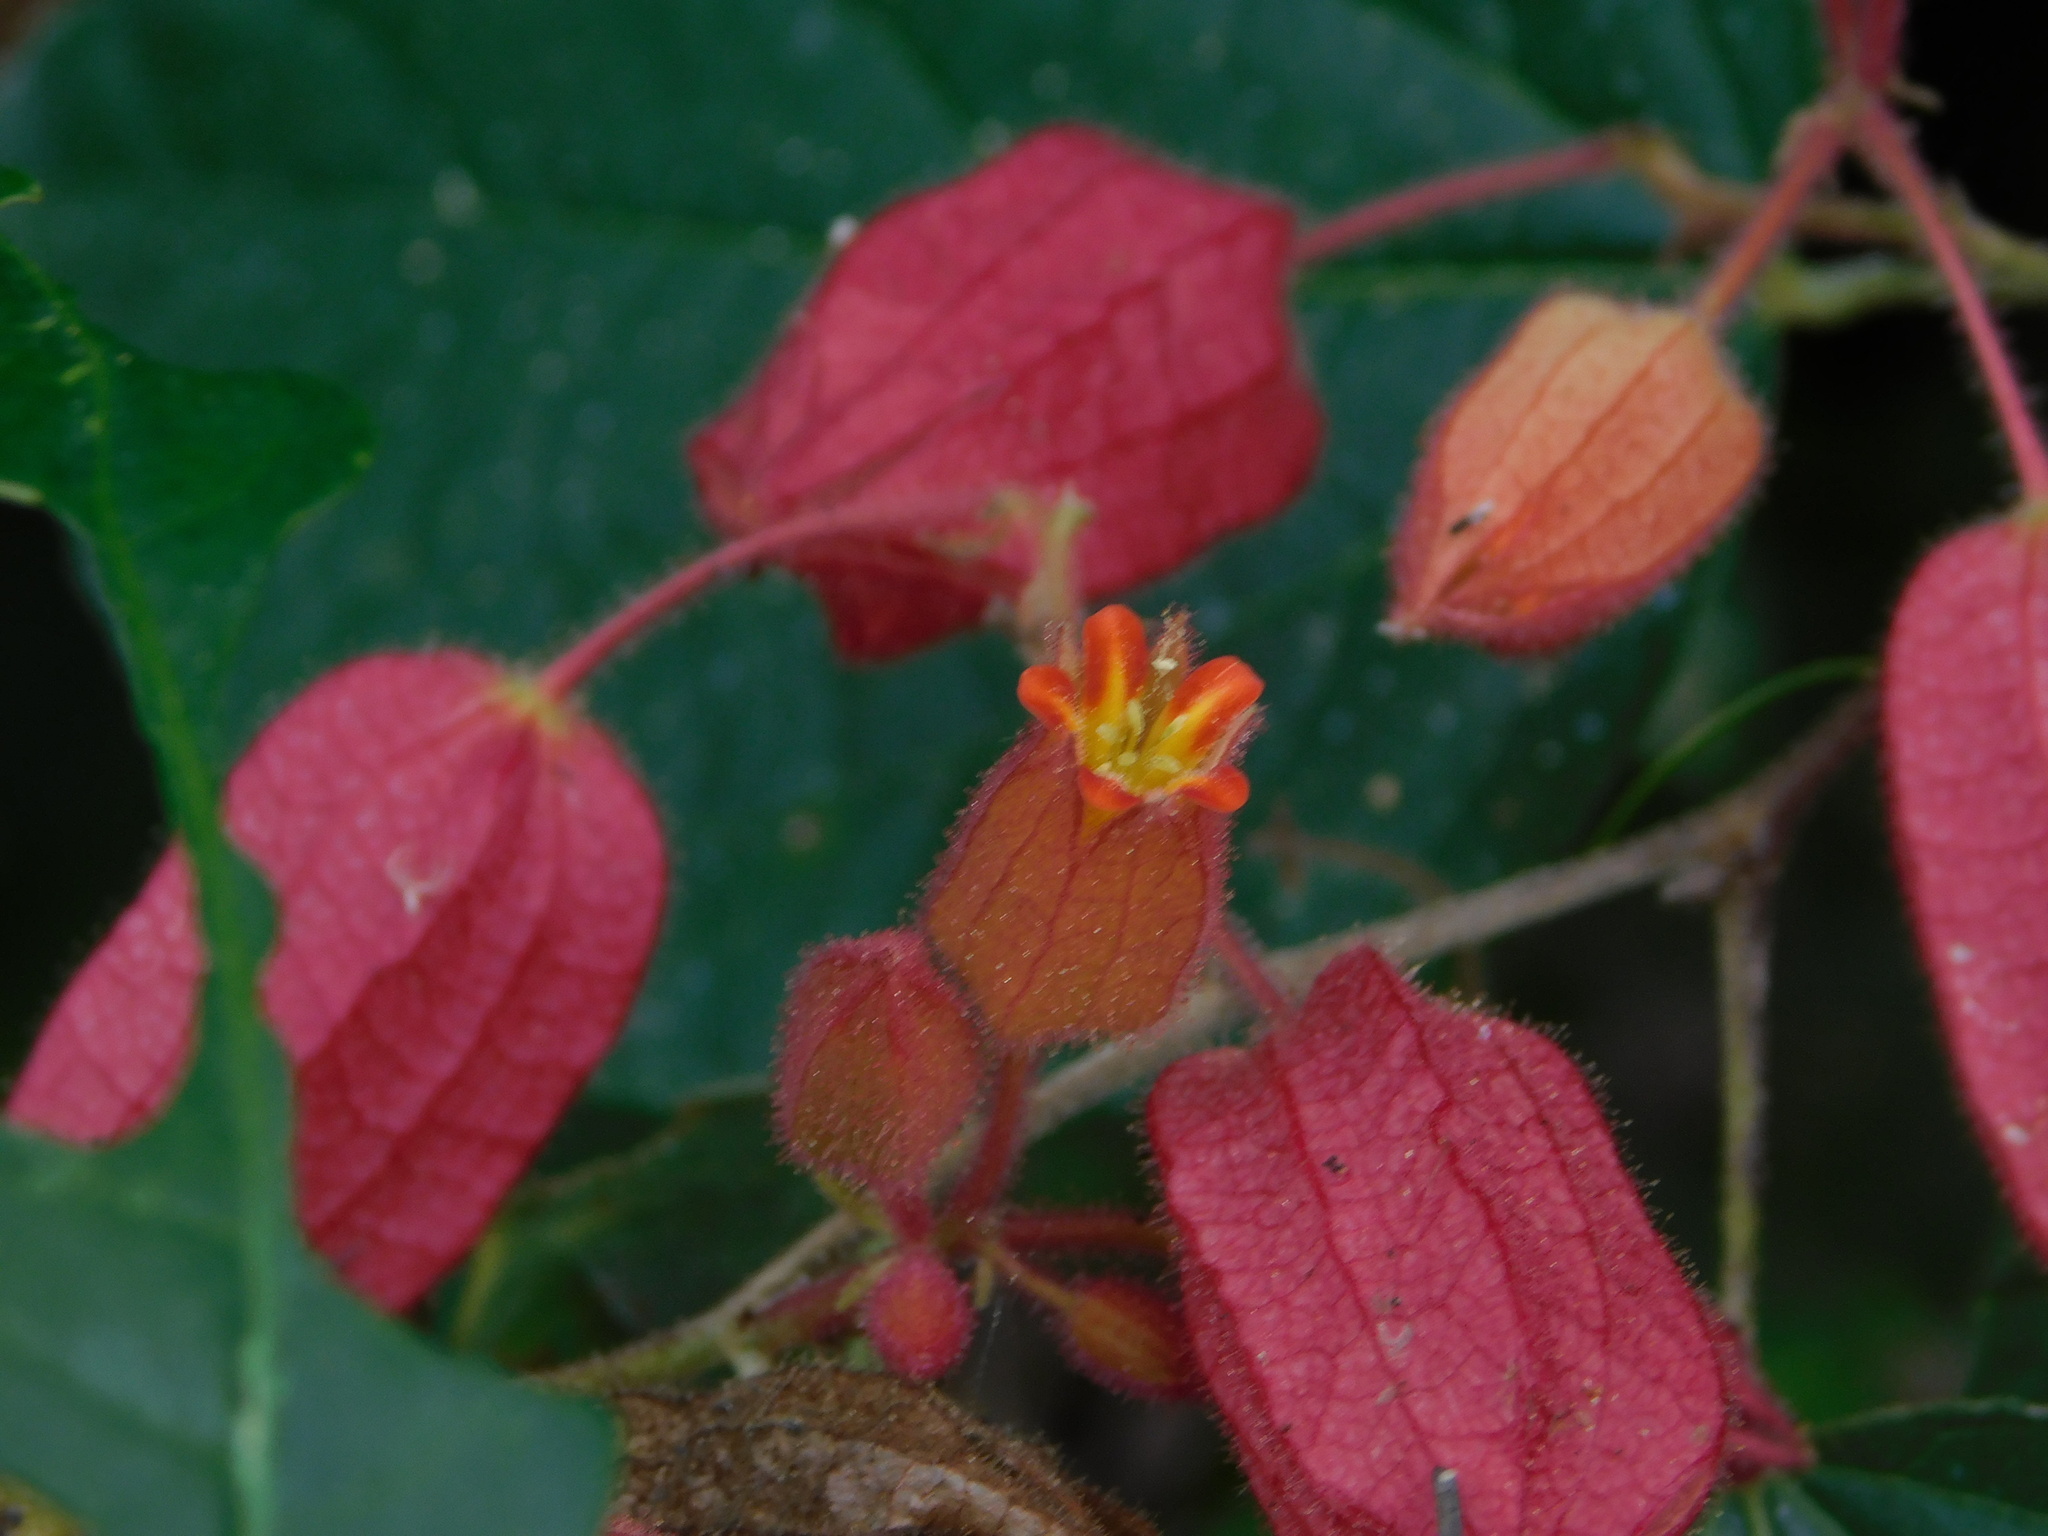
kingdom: Plantae
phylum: Tracheophyta
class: Magnoliopsida
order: Malvales
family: Malvaceae
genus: Physodium
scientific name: Physodium adenodes
